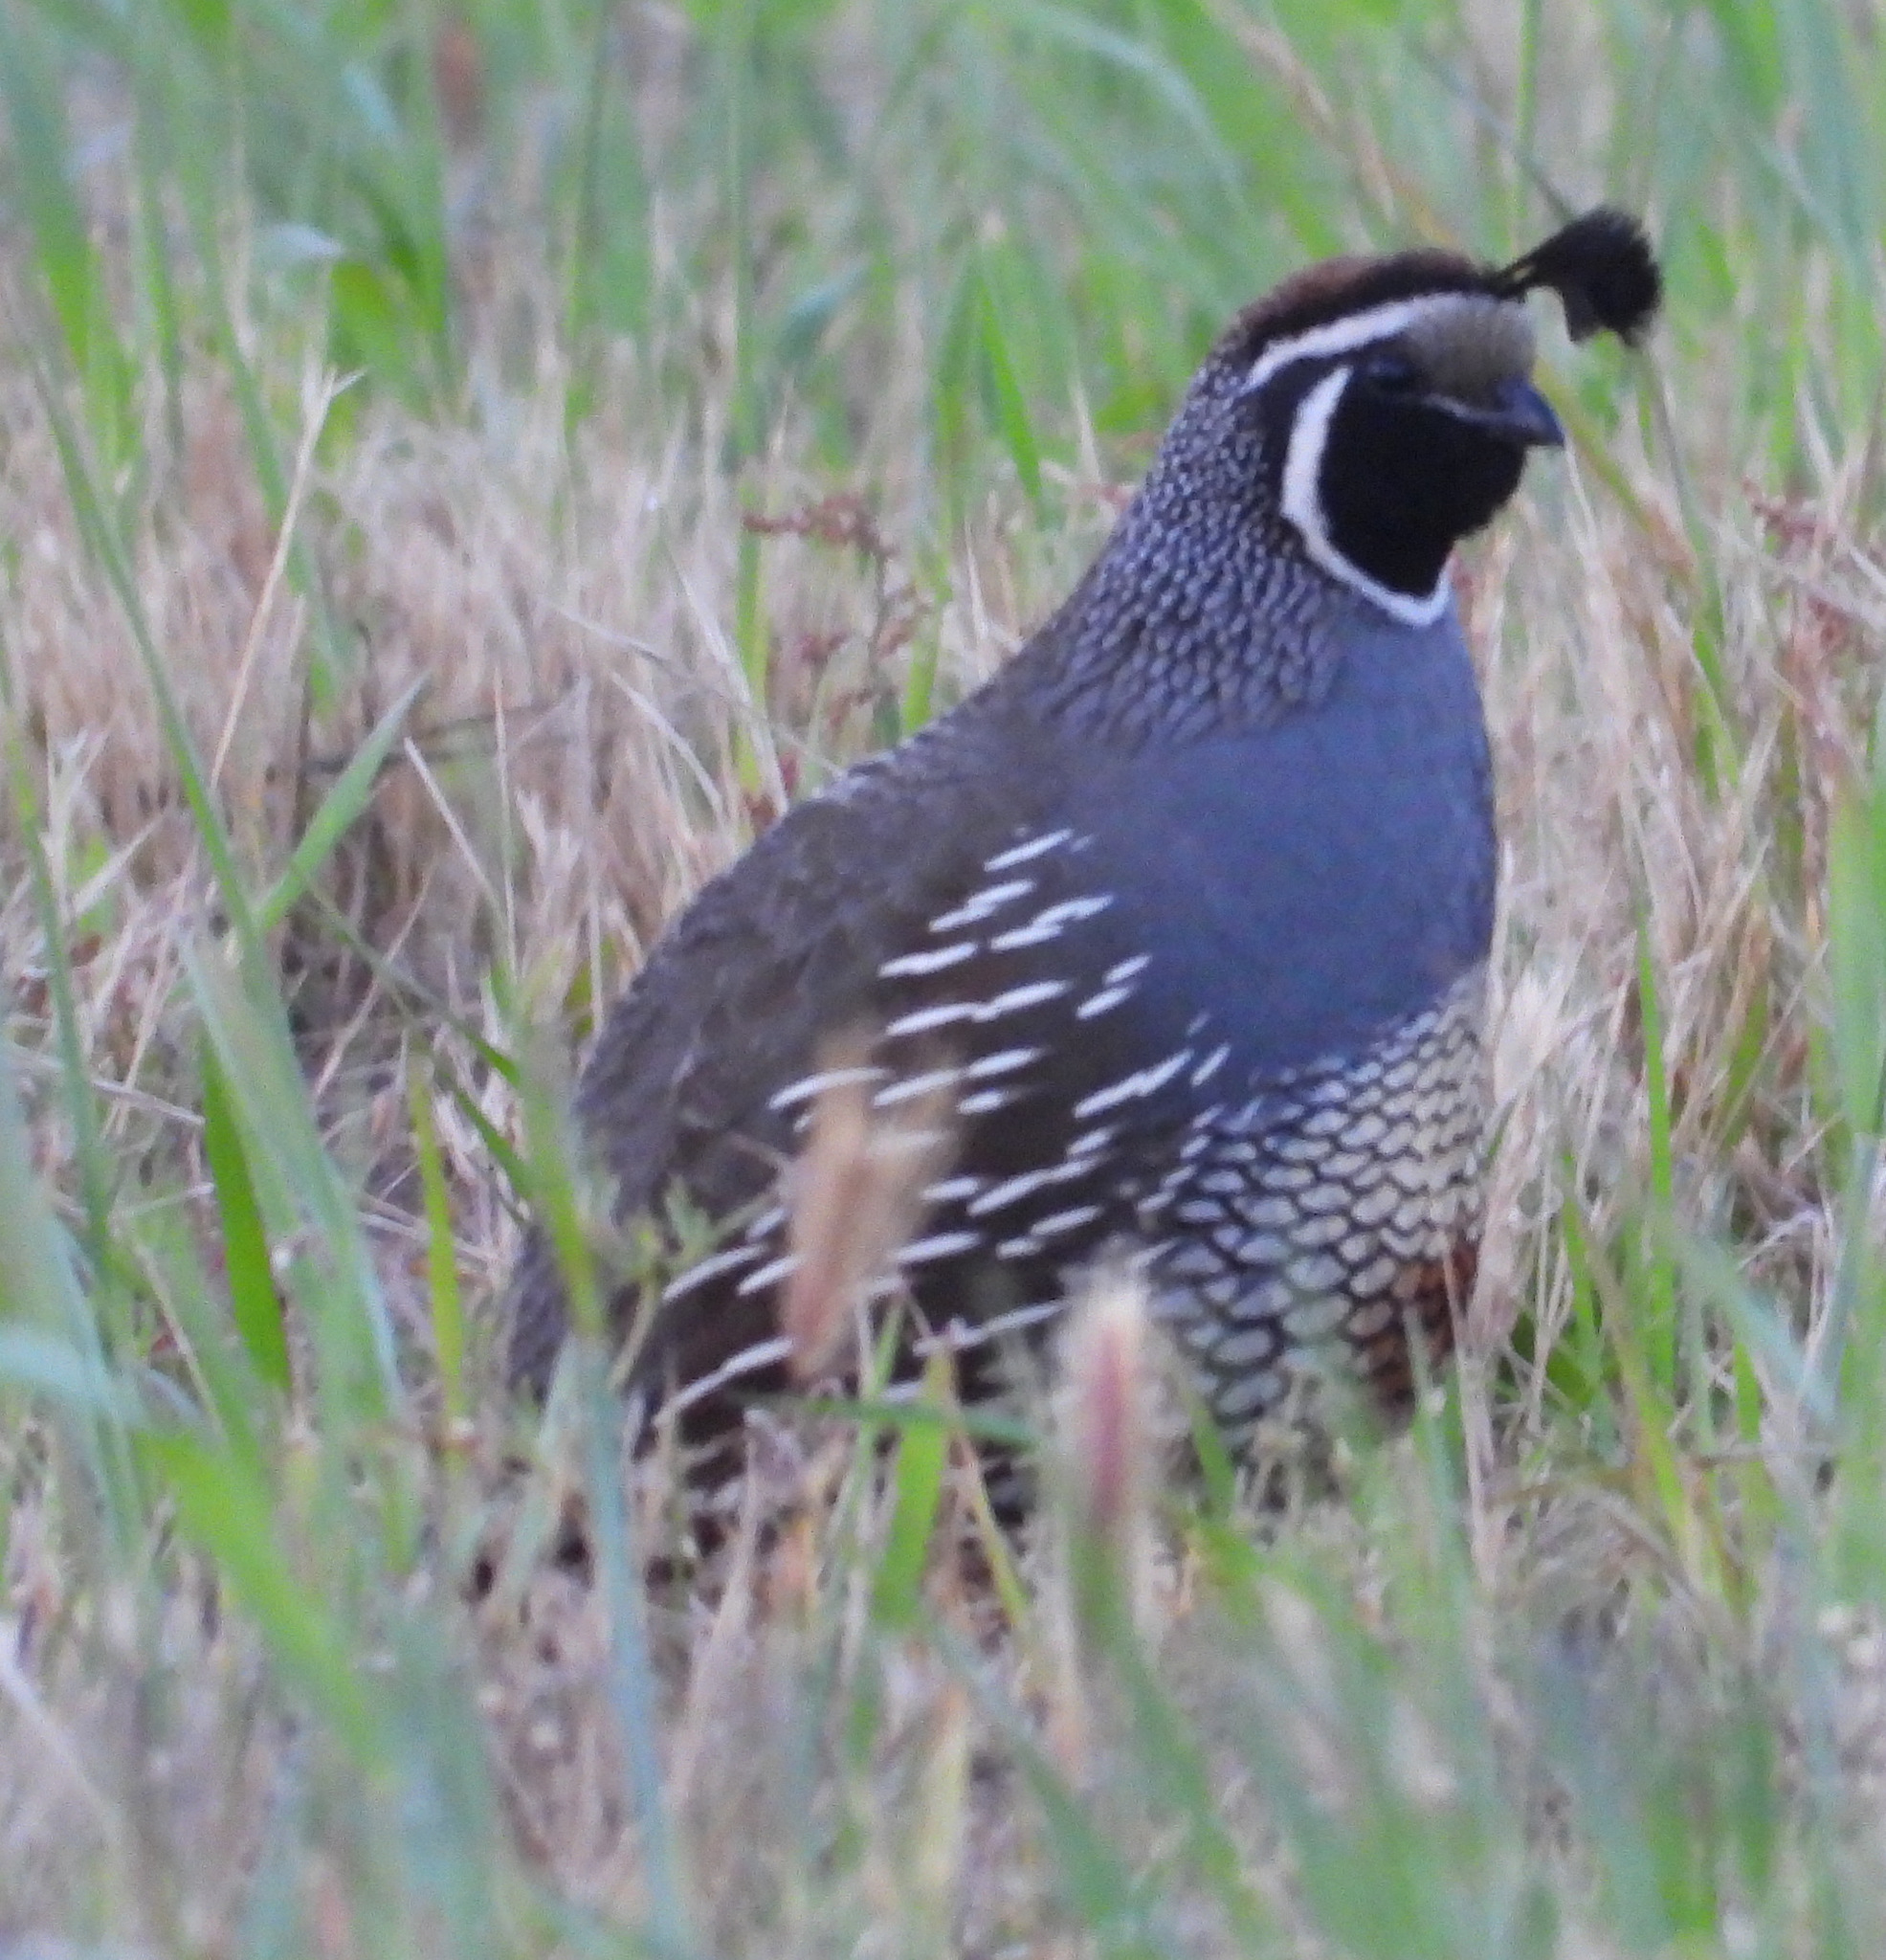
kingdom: Animalia
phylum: Chordata
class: Aves
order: Galliformes
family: Odontophoridae
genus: Callipepla
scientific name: Callipepla californica
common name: California quail
